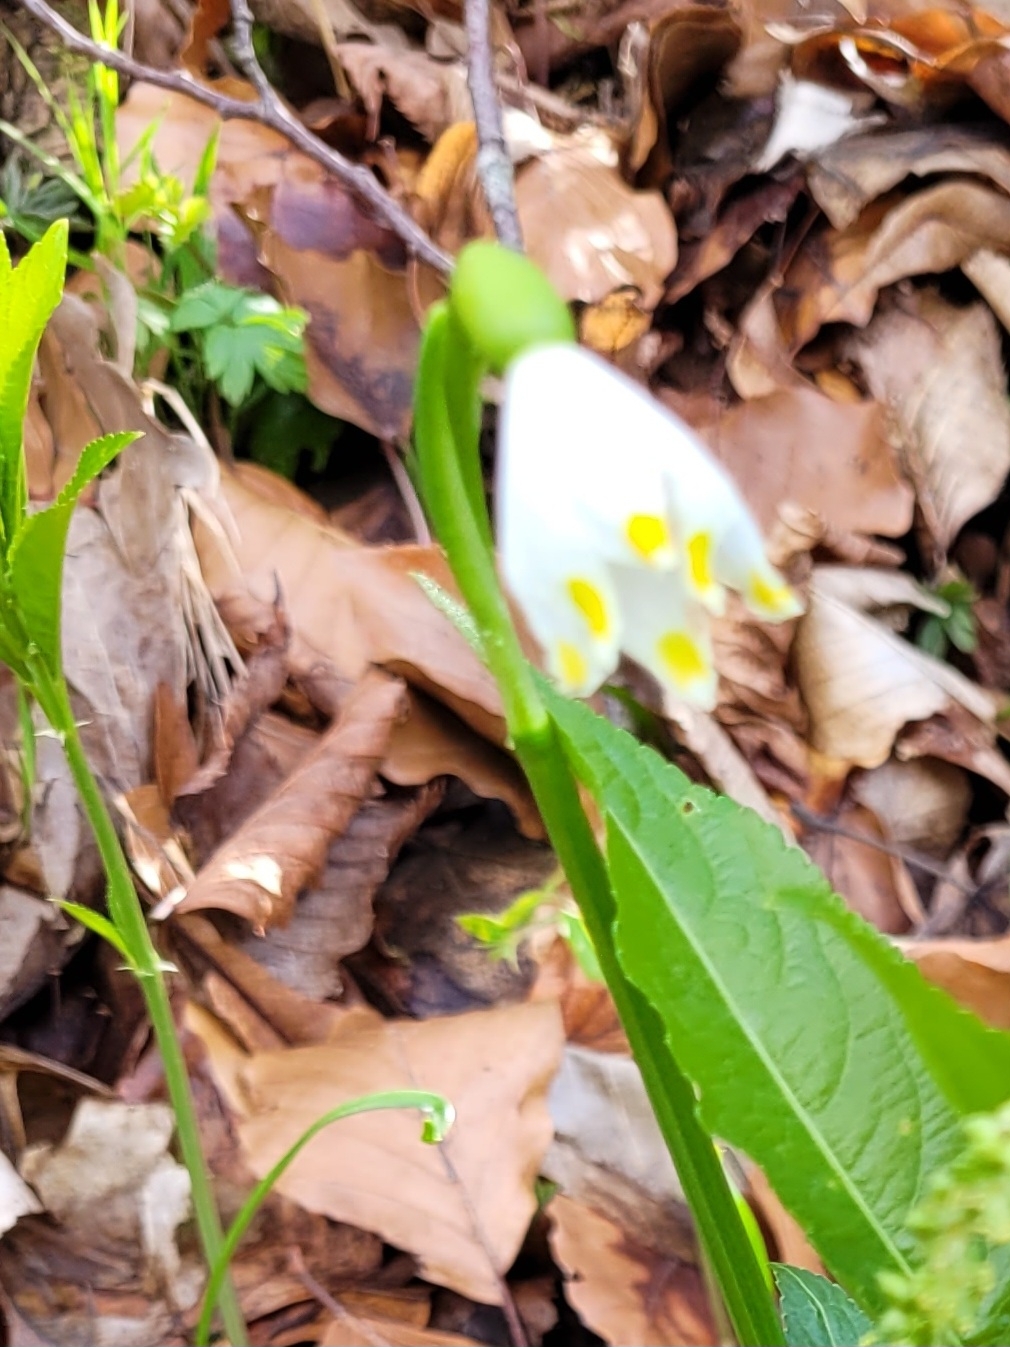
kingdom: Plantae
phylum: Tracheophyta
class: Liliopsida
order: Asparagales
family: Amaryllidaceae
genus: Leucojum
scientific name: Leucojum vernum
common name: Spring snowflake
